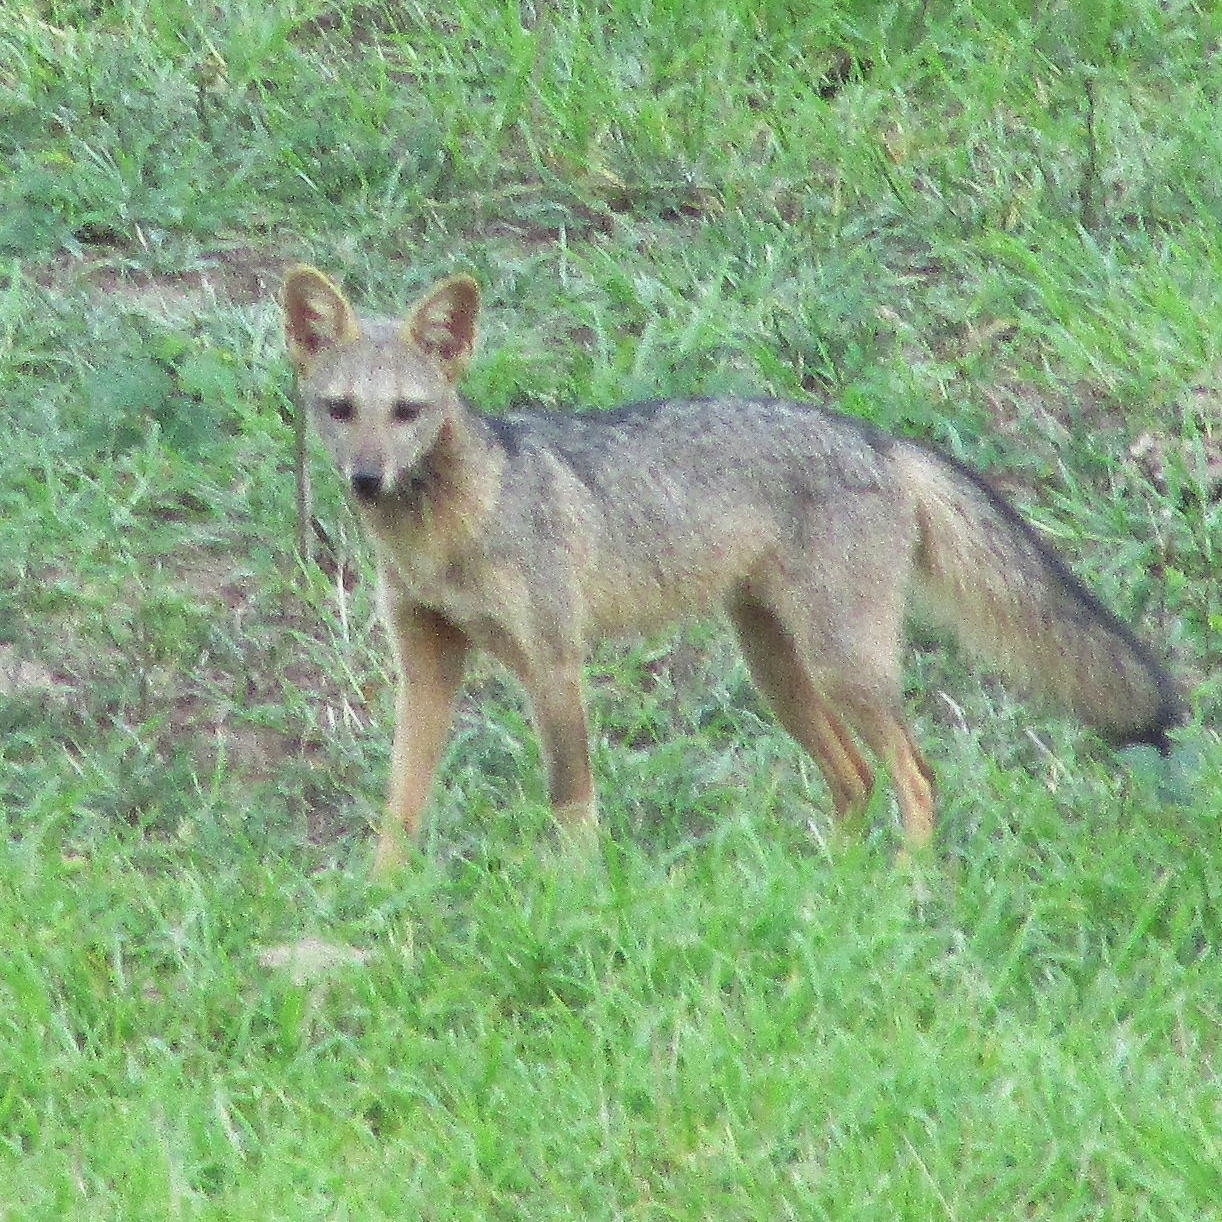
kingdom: Animalia
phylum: Chordata
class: Mammalia
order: Carnivora
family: Canidae
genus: Cerdocyon
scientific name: Cerdocyon thous
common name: Crab-eating fox
